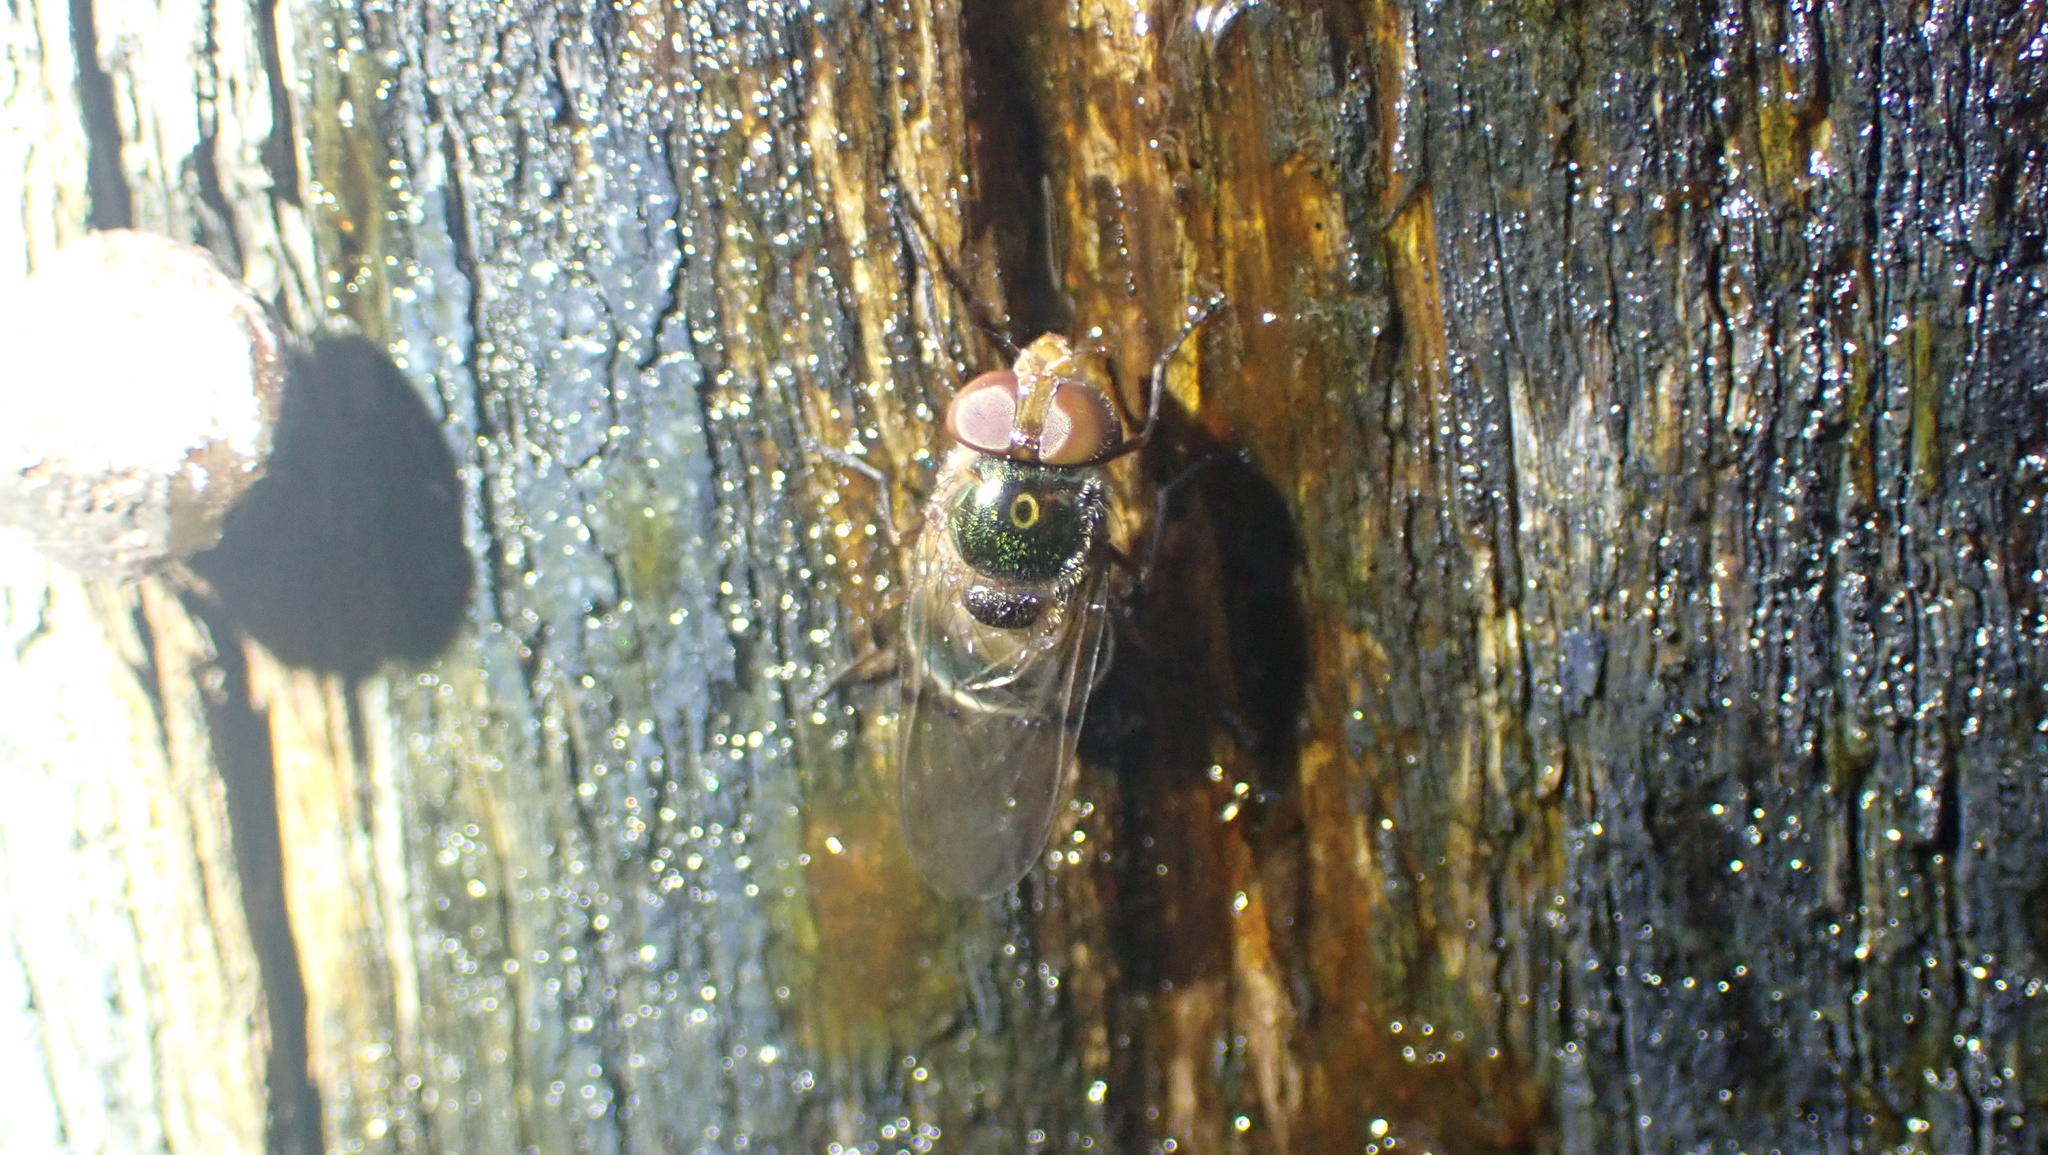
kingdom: Animalia
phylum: Arthropoda
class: Insecta
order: Diptera
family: Syrphidae
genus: Copestylum
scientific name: Copestylum vesicularium
